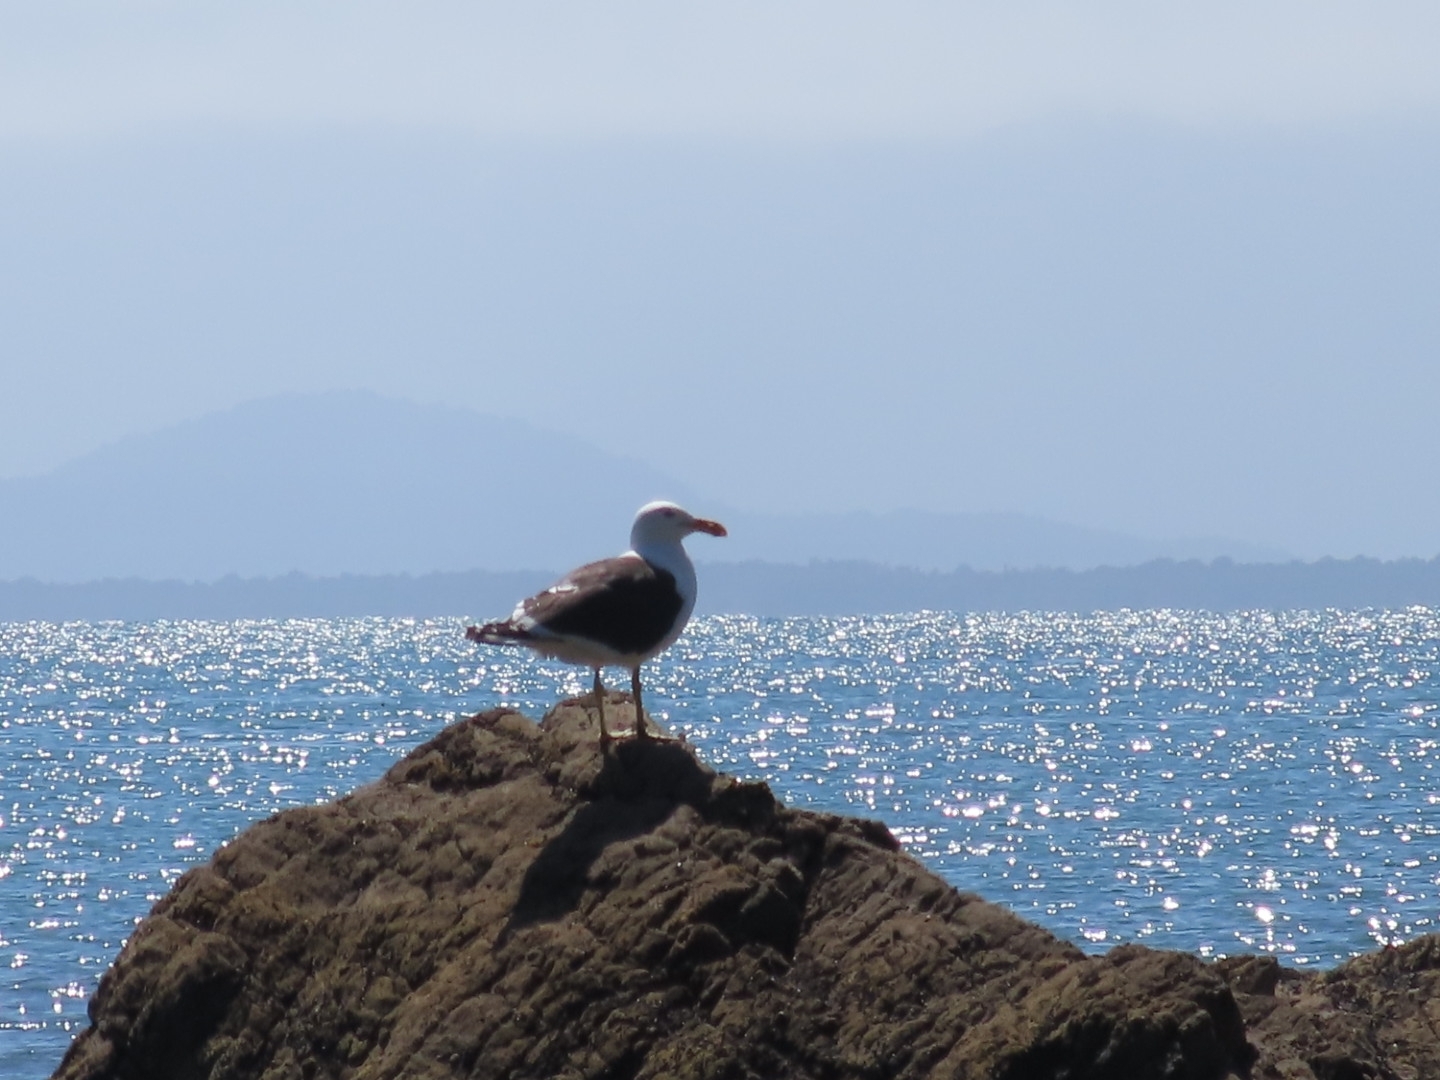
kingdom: Animalia
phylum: Chordata
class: Aves
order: Charadriiformes
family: Laridae
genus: Larus
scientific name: Larus dominicanus
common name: Kelp gull
